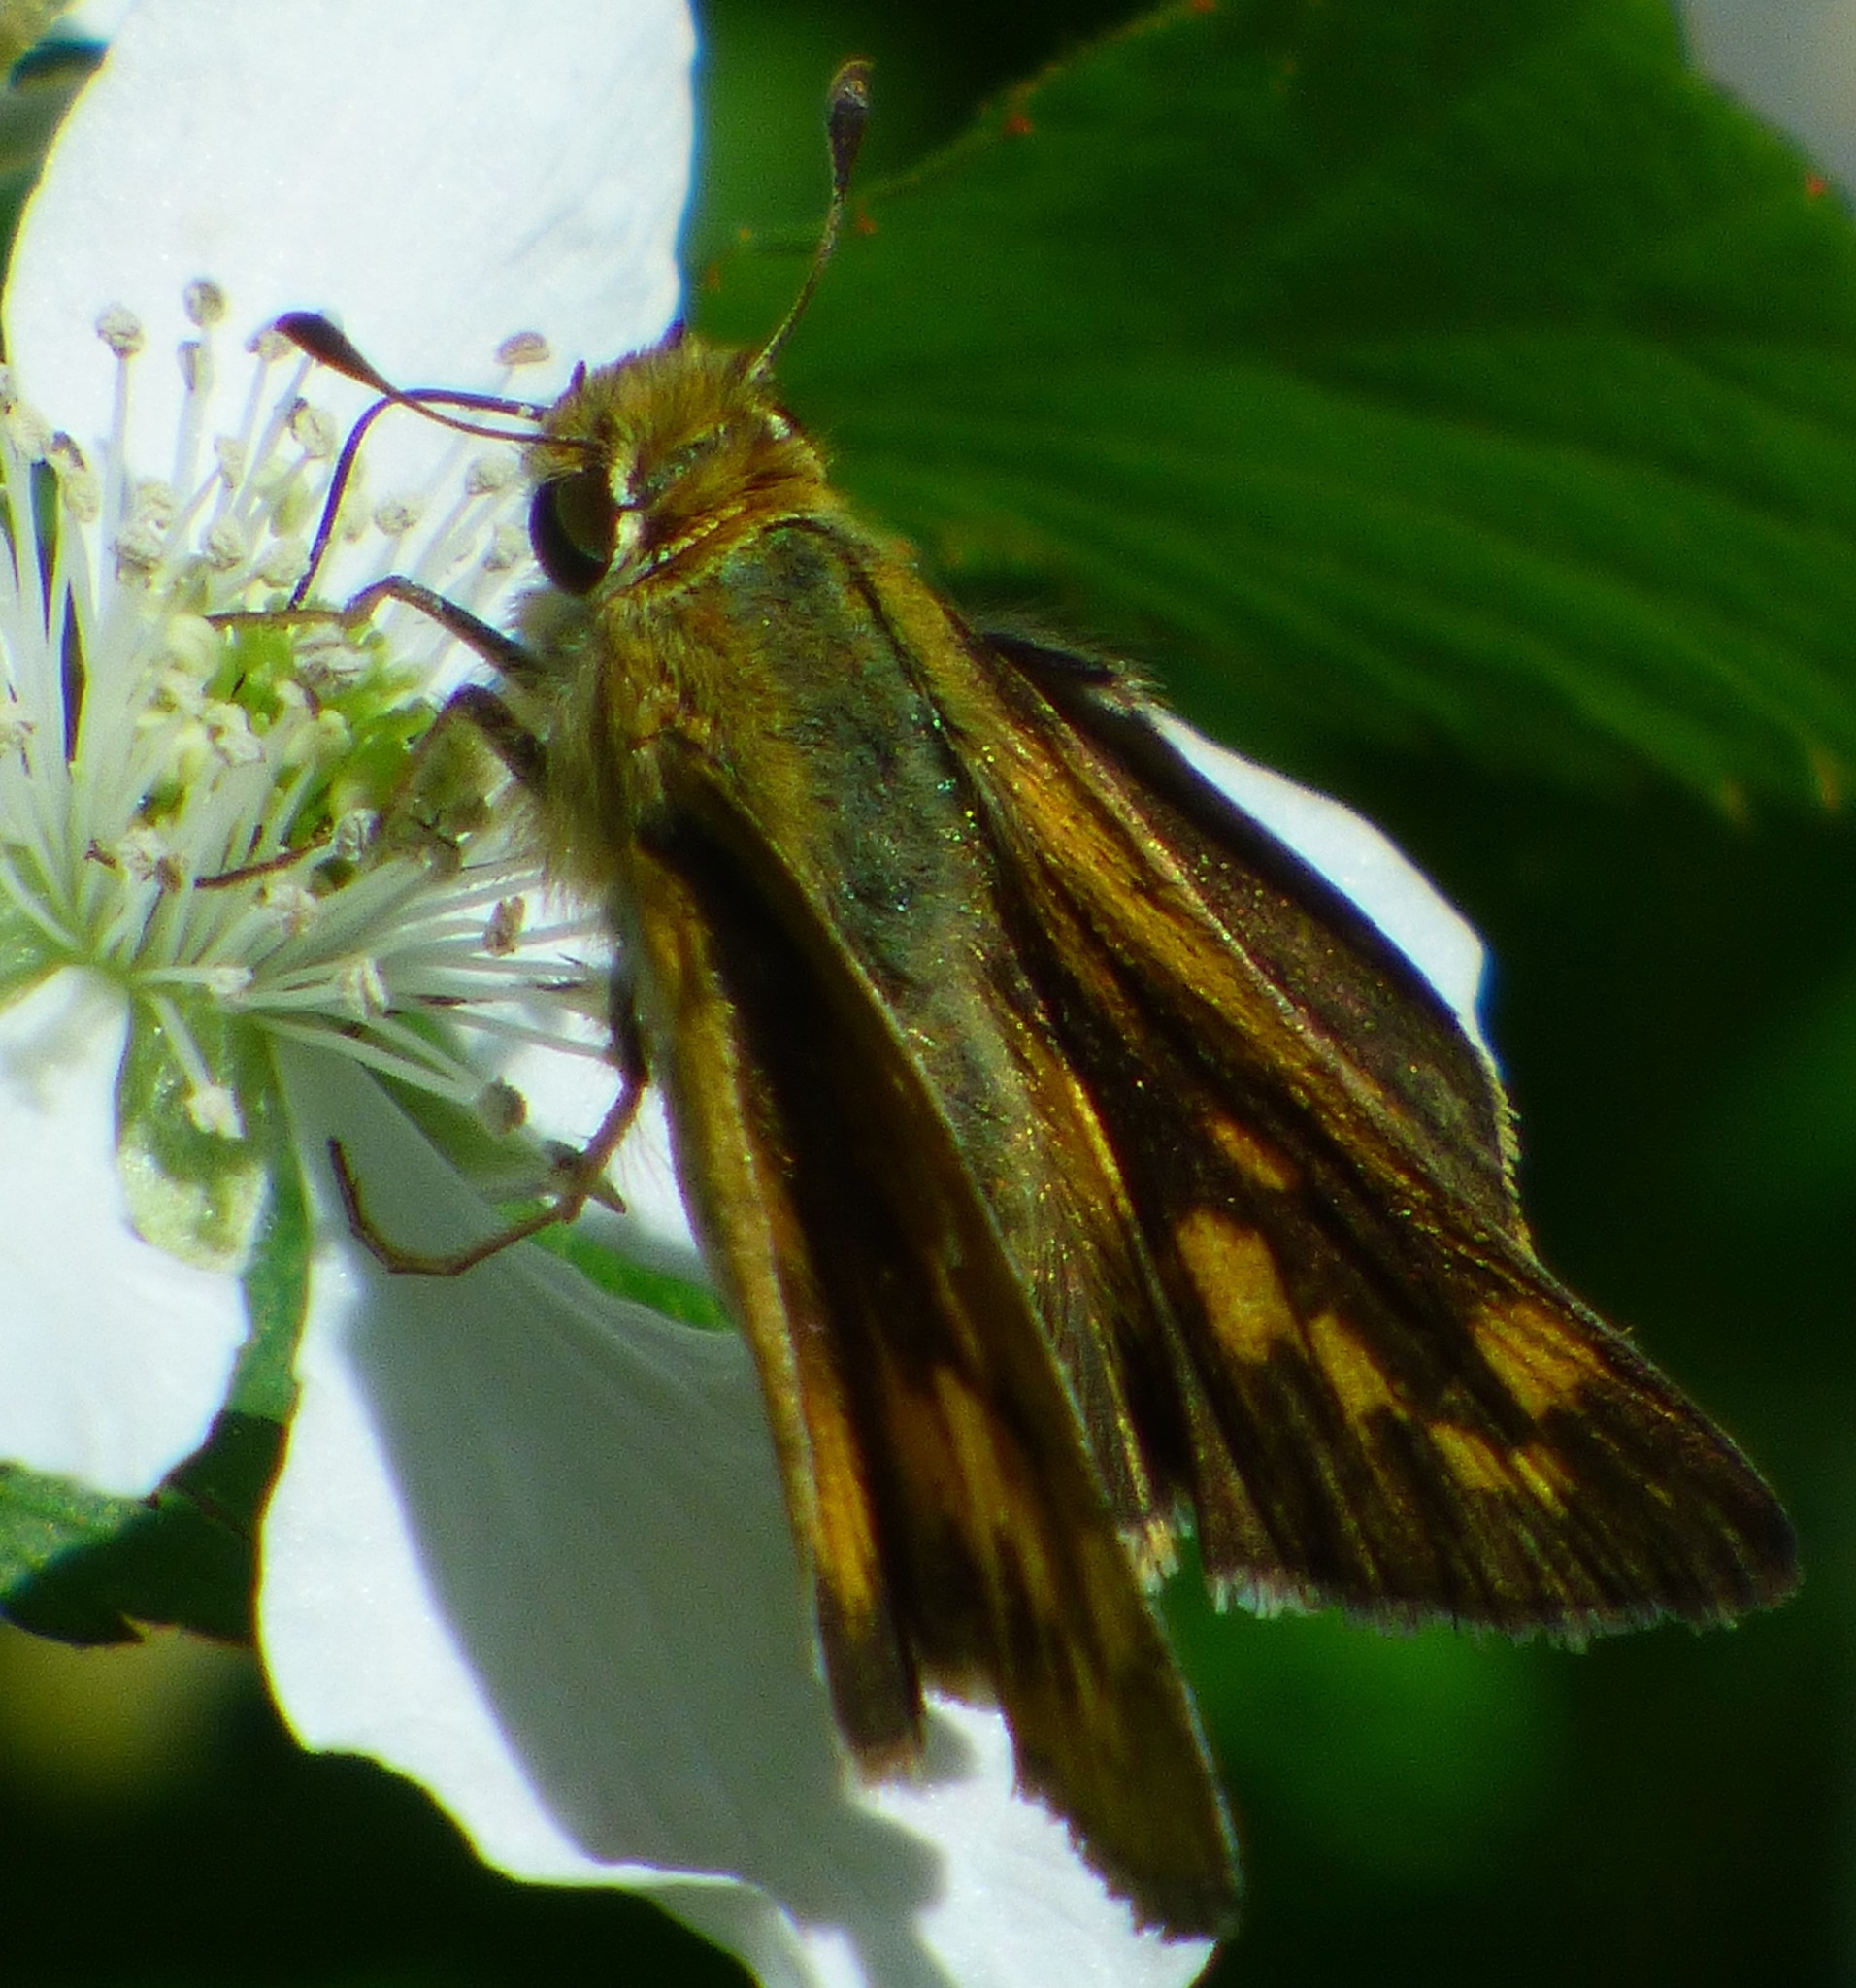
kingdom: Animalia
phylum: Arthropoda
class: Insecta
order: Lepidoptera
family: Hesperiidae
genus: Hylephila
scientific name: Hylephila phyleus
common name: Fiery skipper
